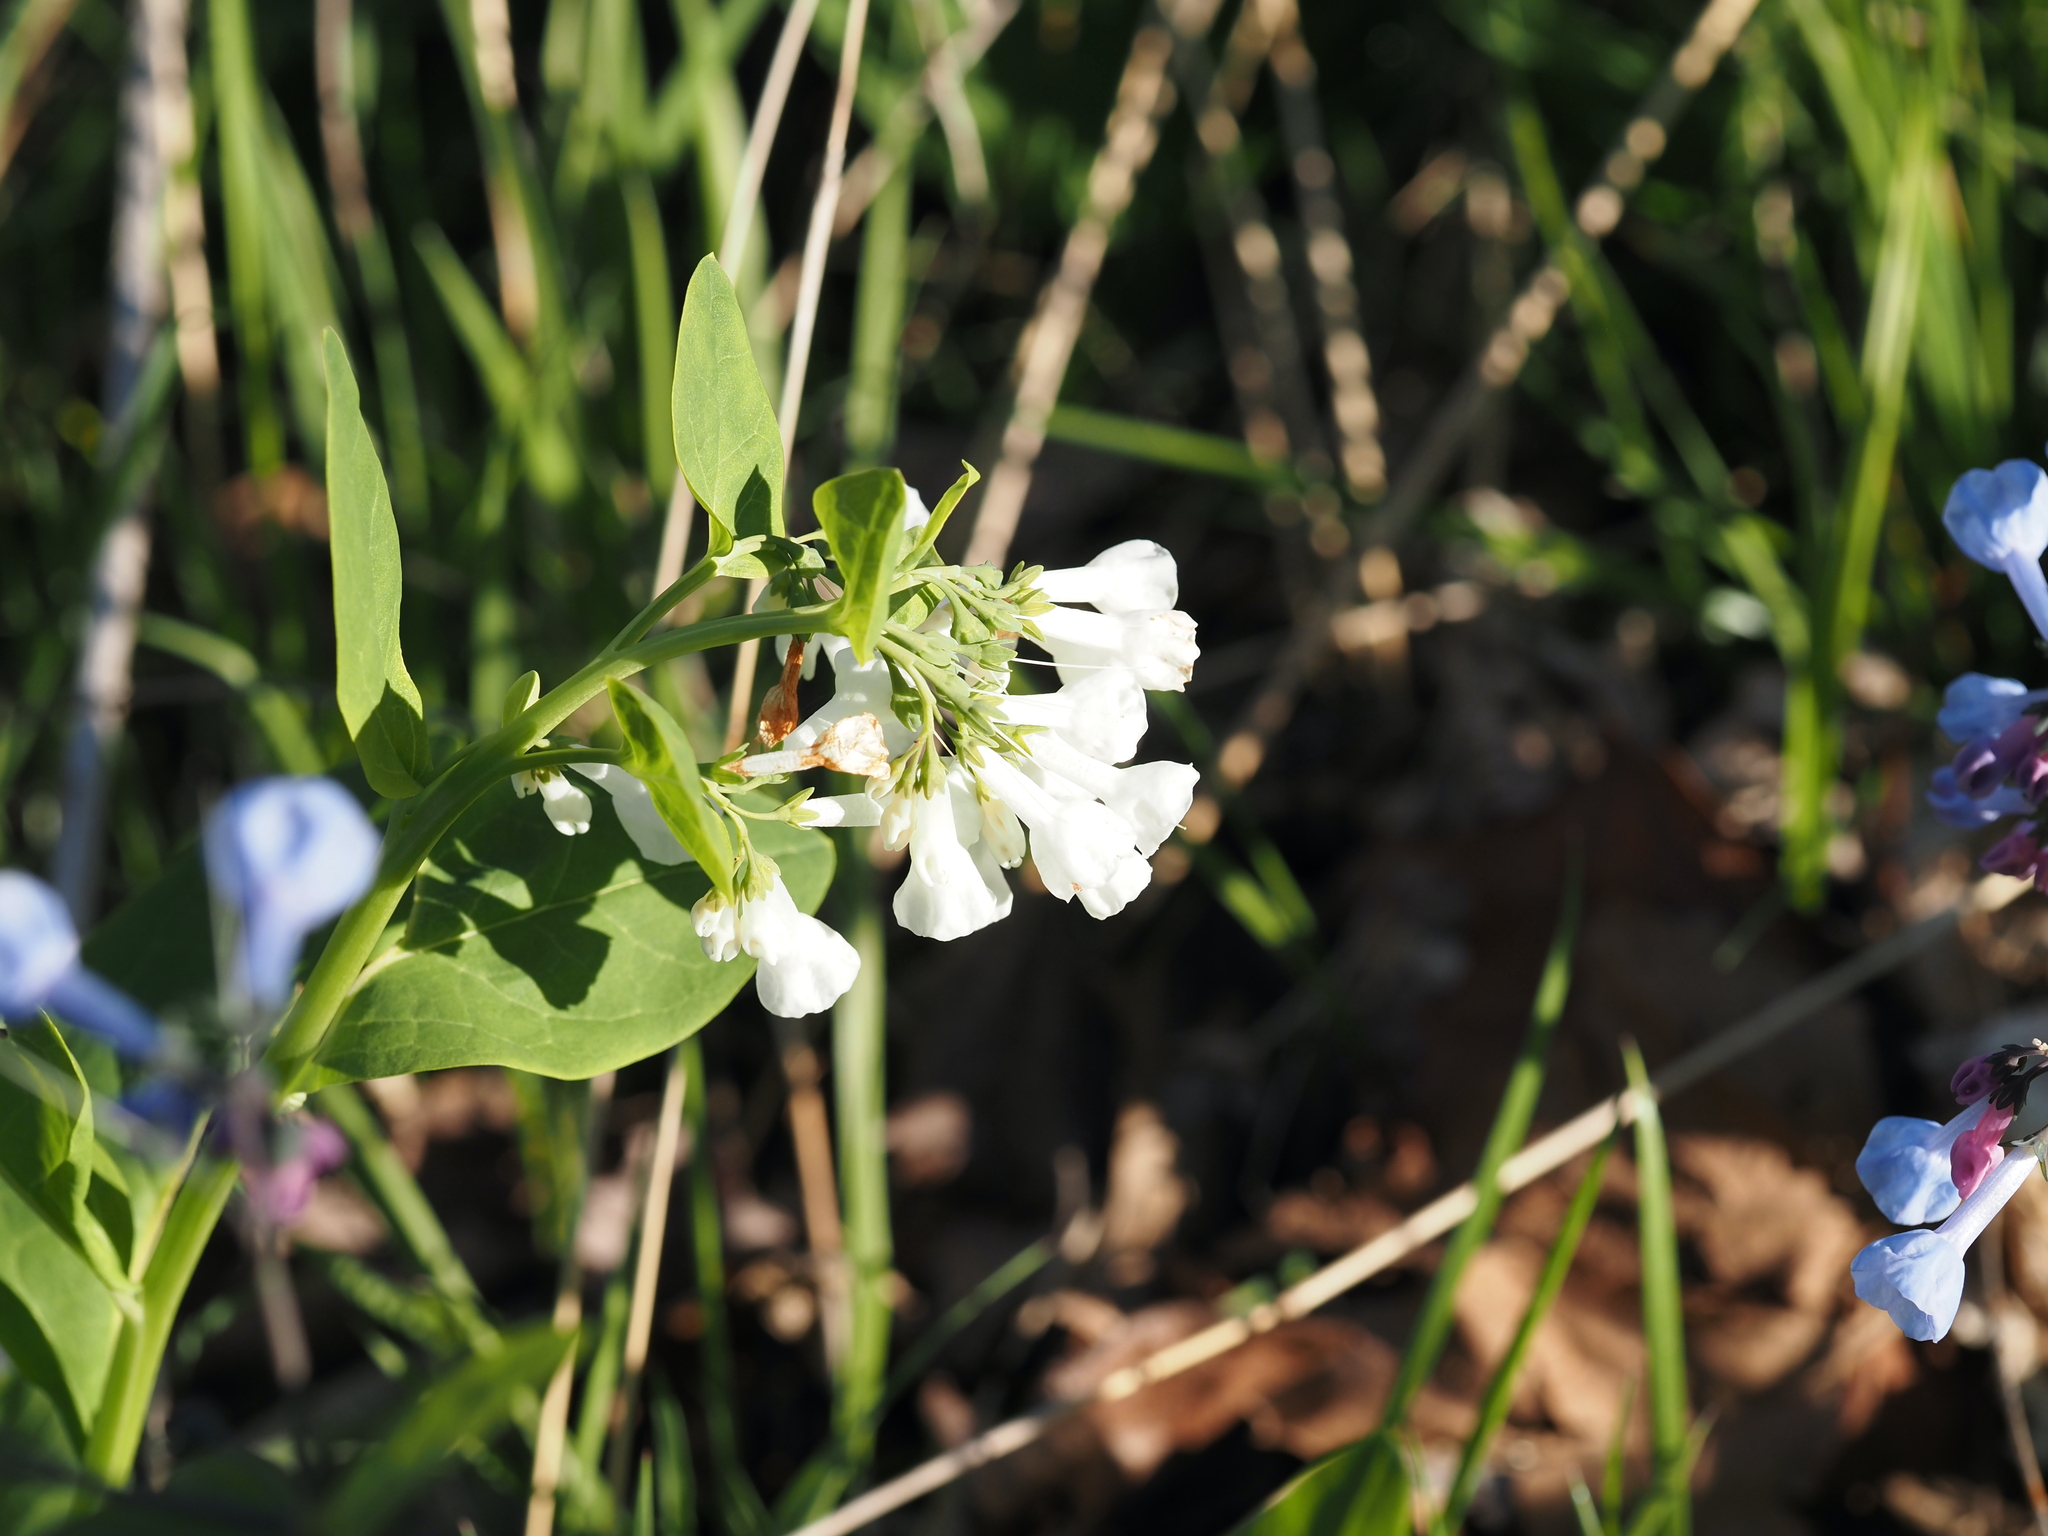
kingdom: Plantae
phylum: Tracheophyta
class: Magnoliopsida
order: Boraginales
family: Boraginaceae
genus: Mertensia
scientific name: Mertensia virginica
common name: Virginia bluebells
